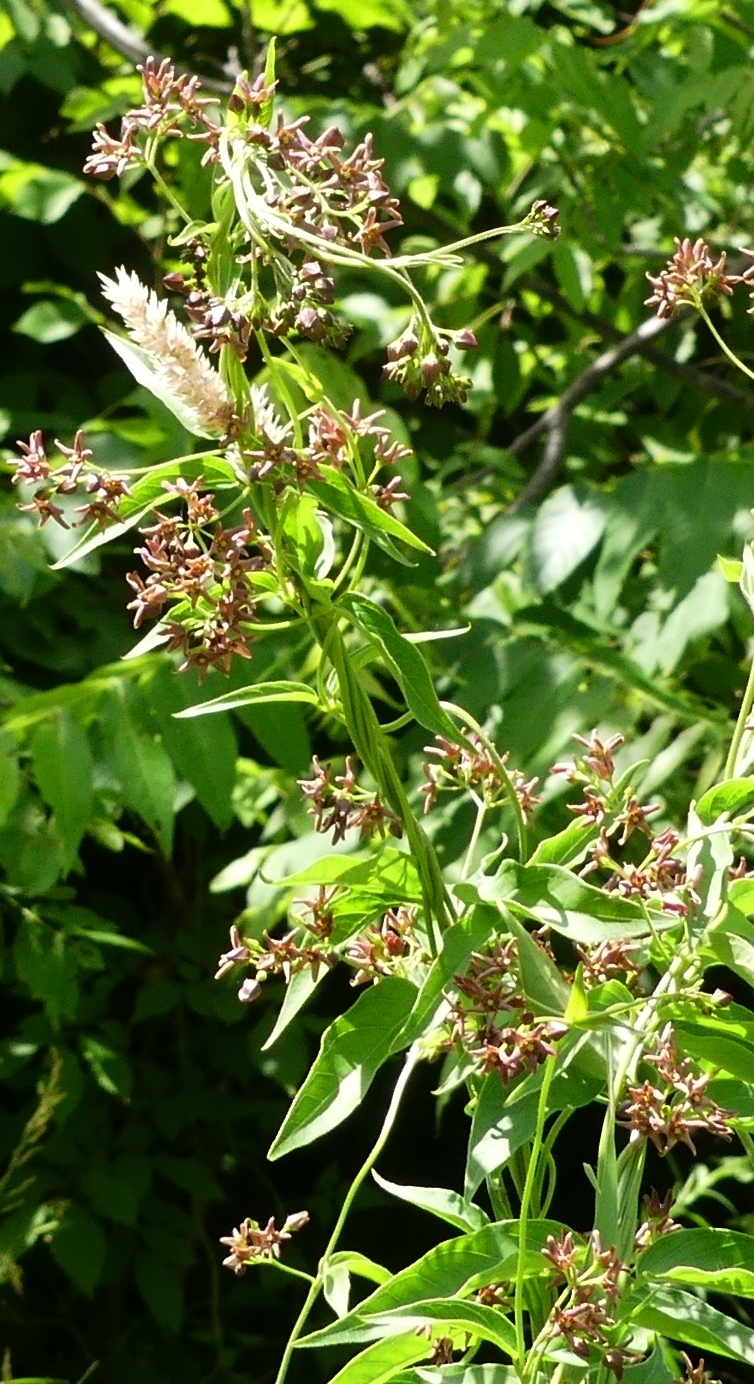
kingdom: Plantae
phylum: Tracheophyta
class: Magnoliopsida
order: Gentianales
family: Apocynaceae
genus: Vincetoxicum
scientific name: Vincetoxicum rossicum
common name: Dog-strangling vine
